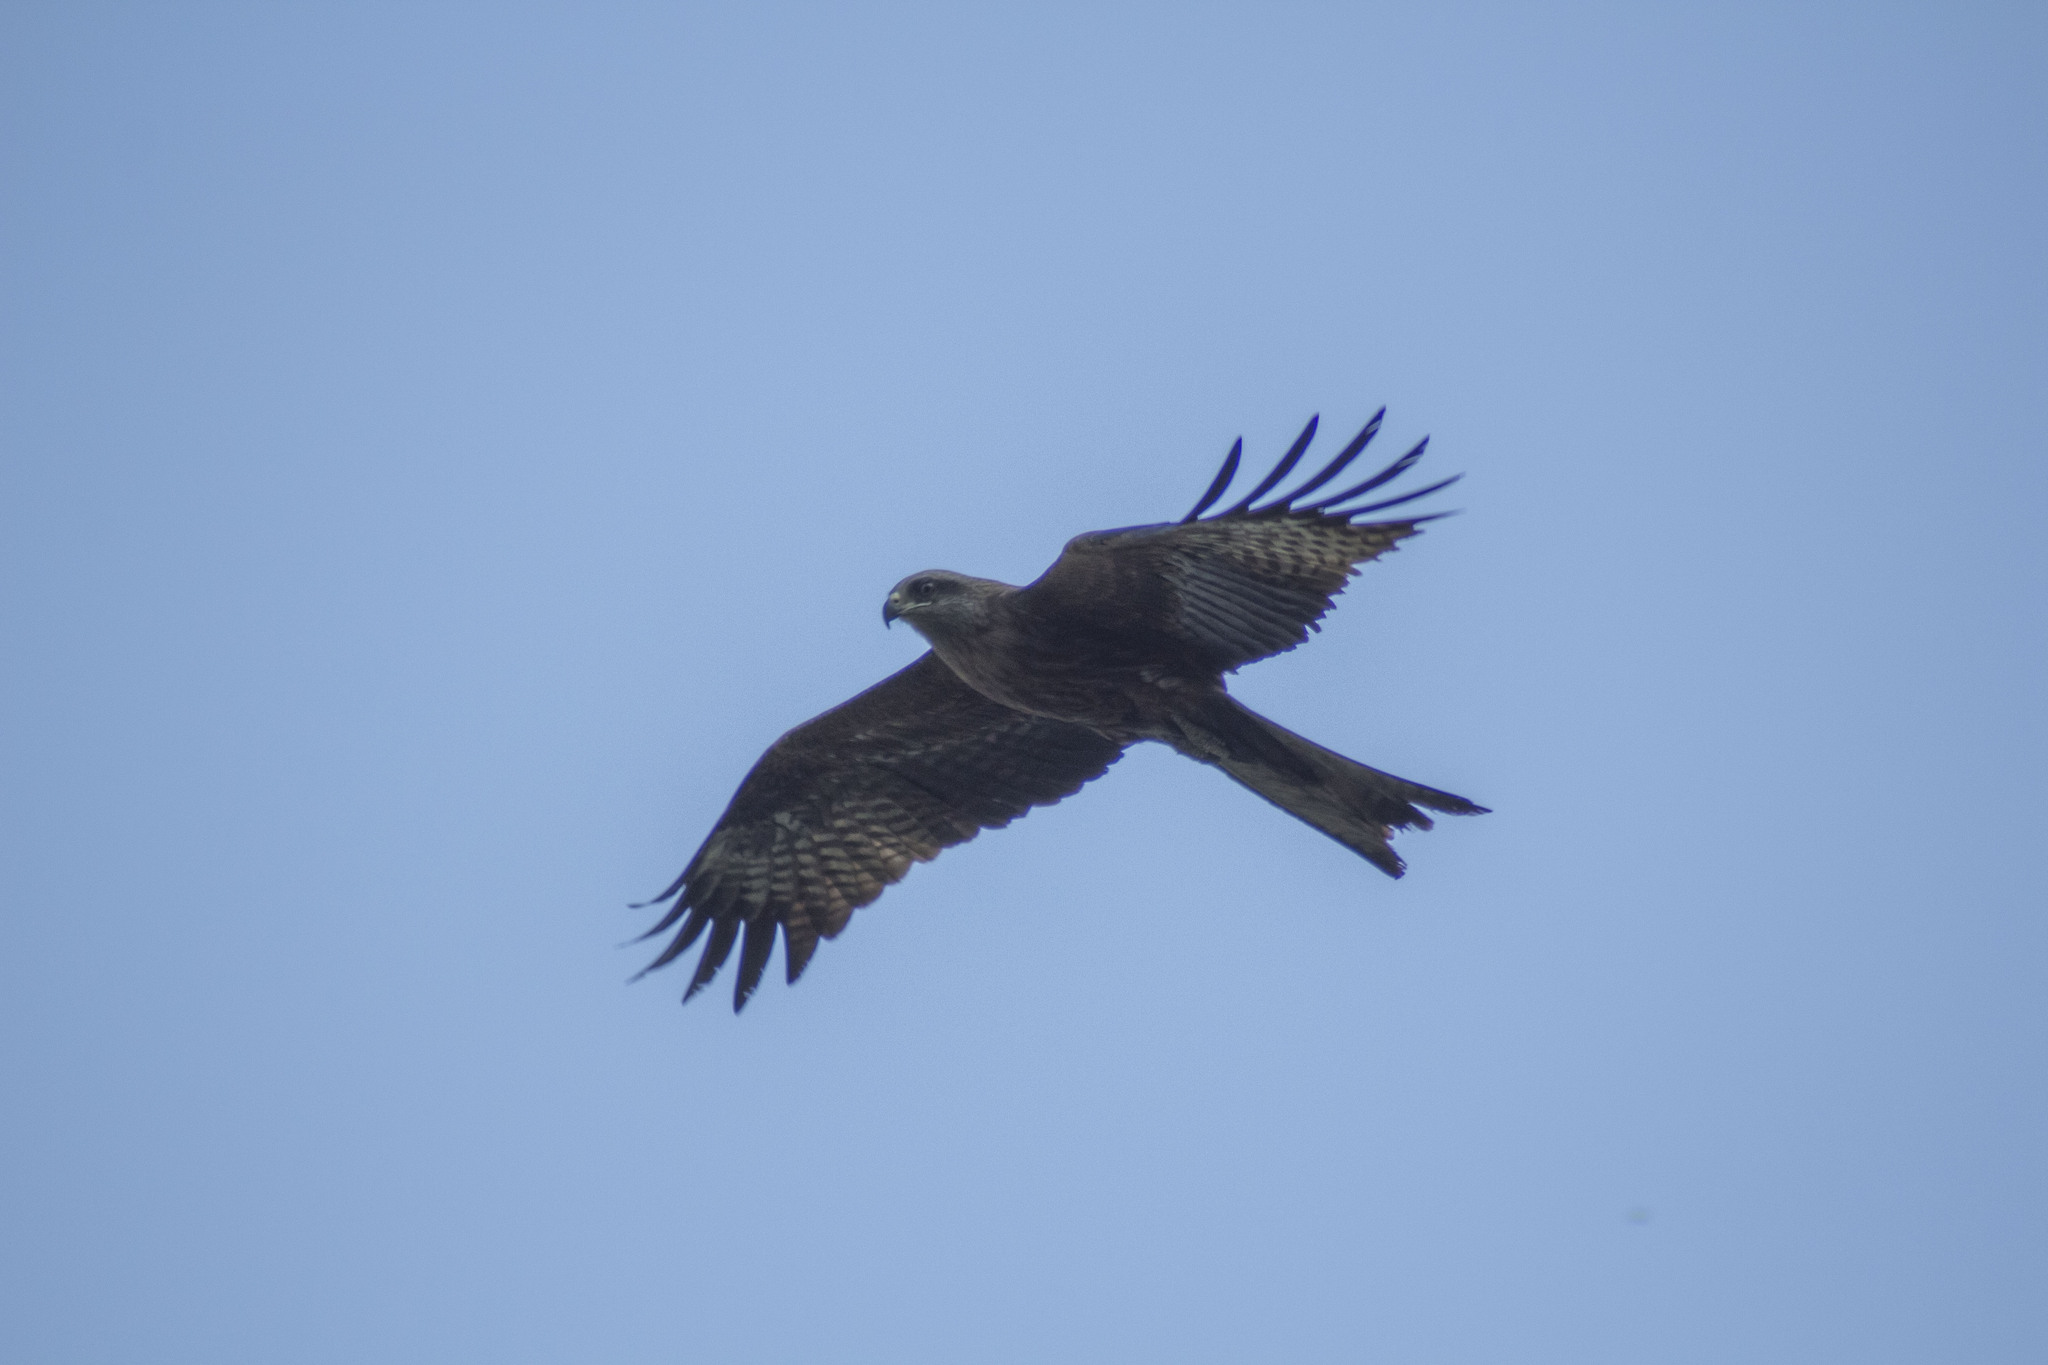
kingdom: Animalia
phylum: Chordata
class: Aves
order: Accipitriformes
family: Accipitridae
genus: Milvus
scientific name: Milvus migrans
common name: Black kite
